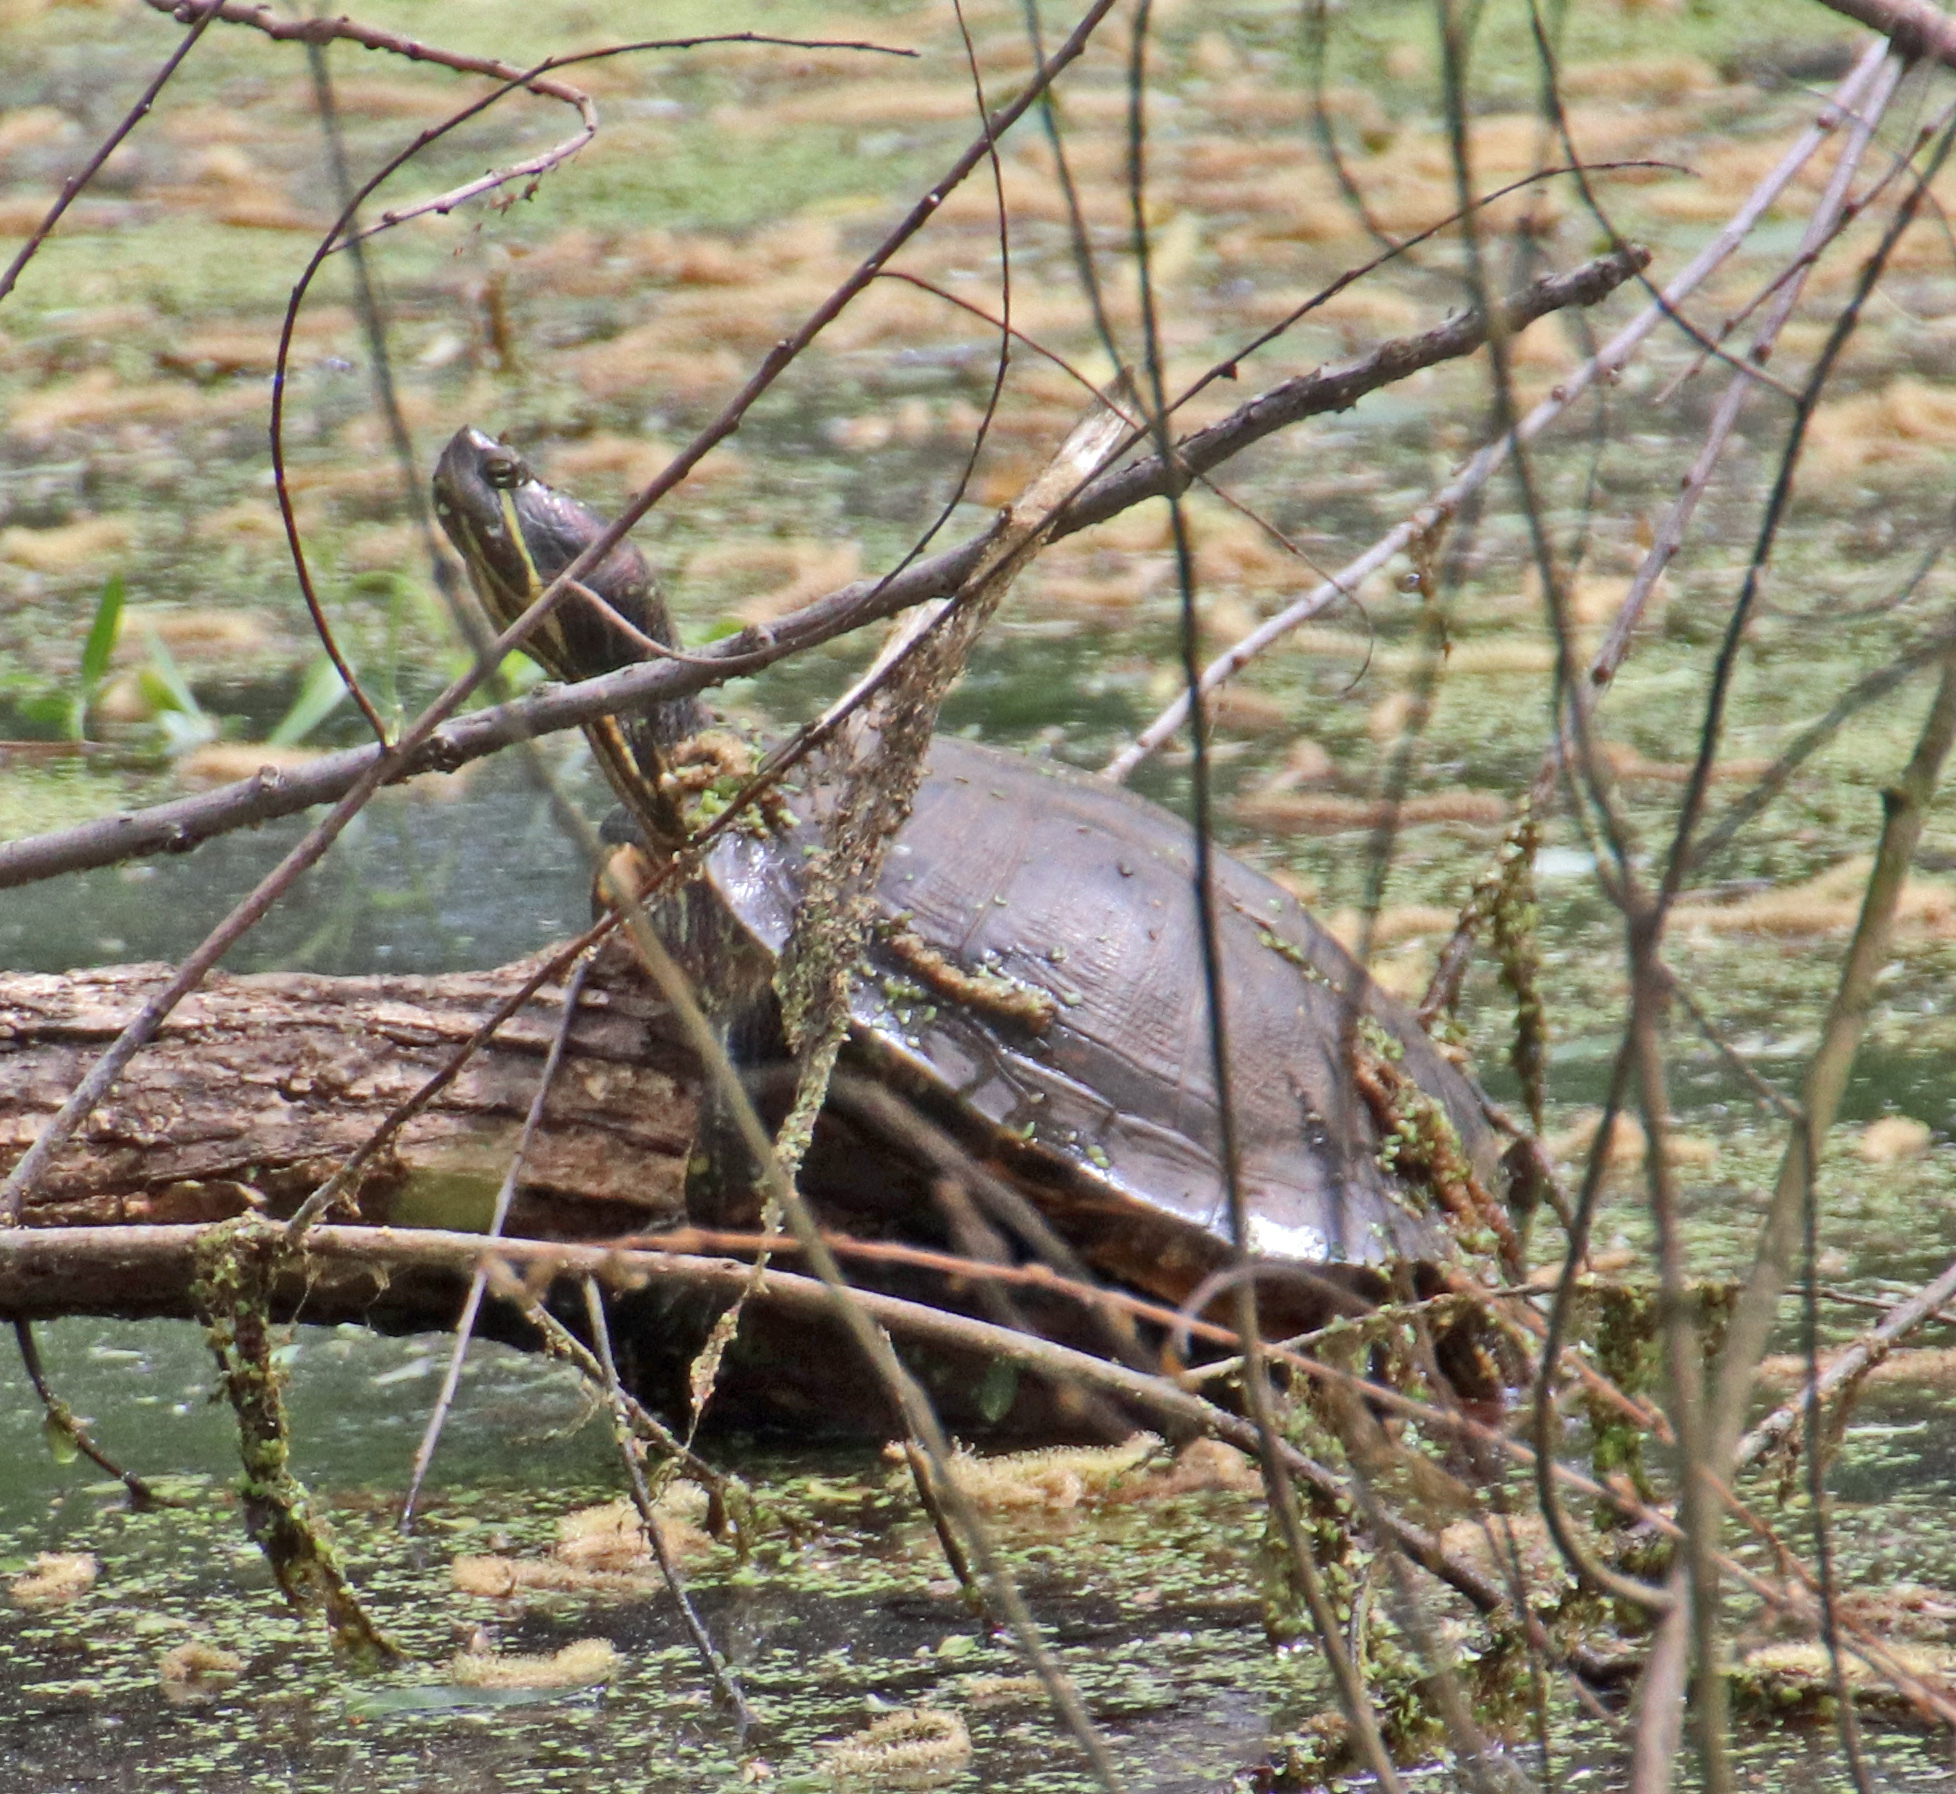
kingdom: Animalia
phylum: Chordata
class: Testudines
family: Emydidae
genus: Trachemys
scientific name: Trachemys scripta
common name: Slider
